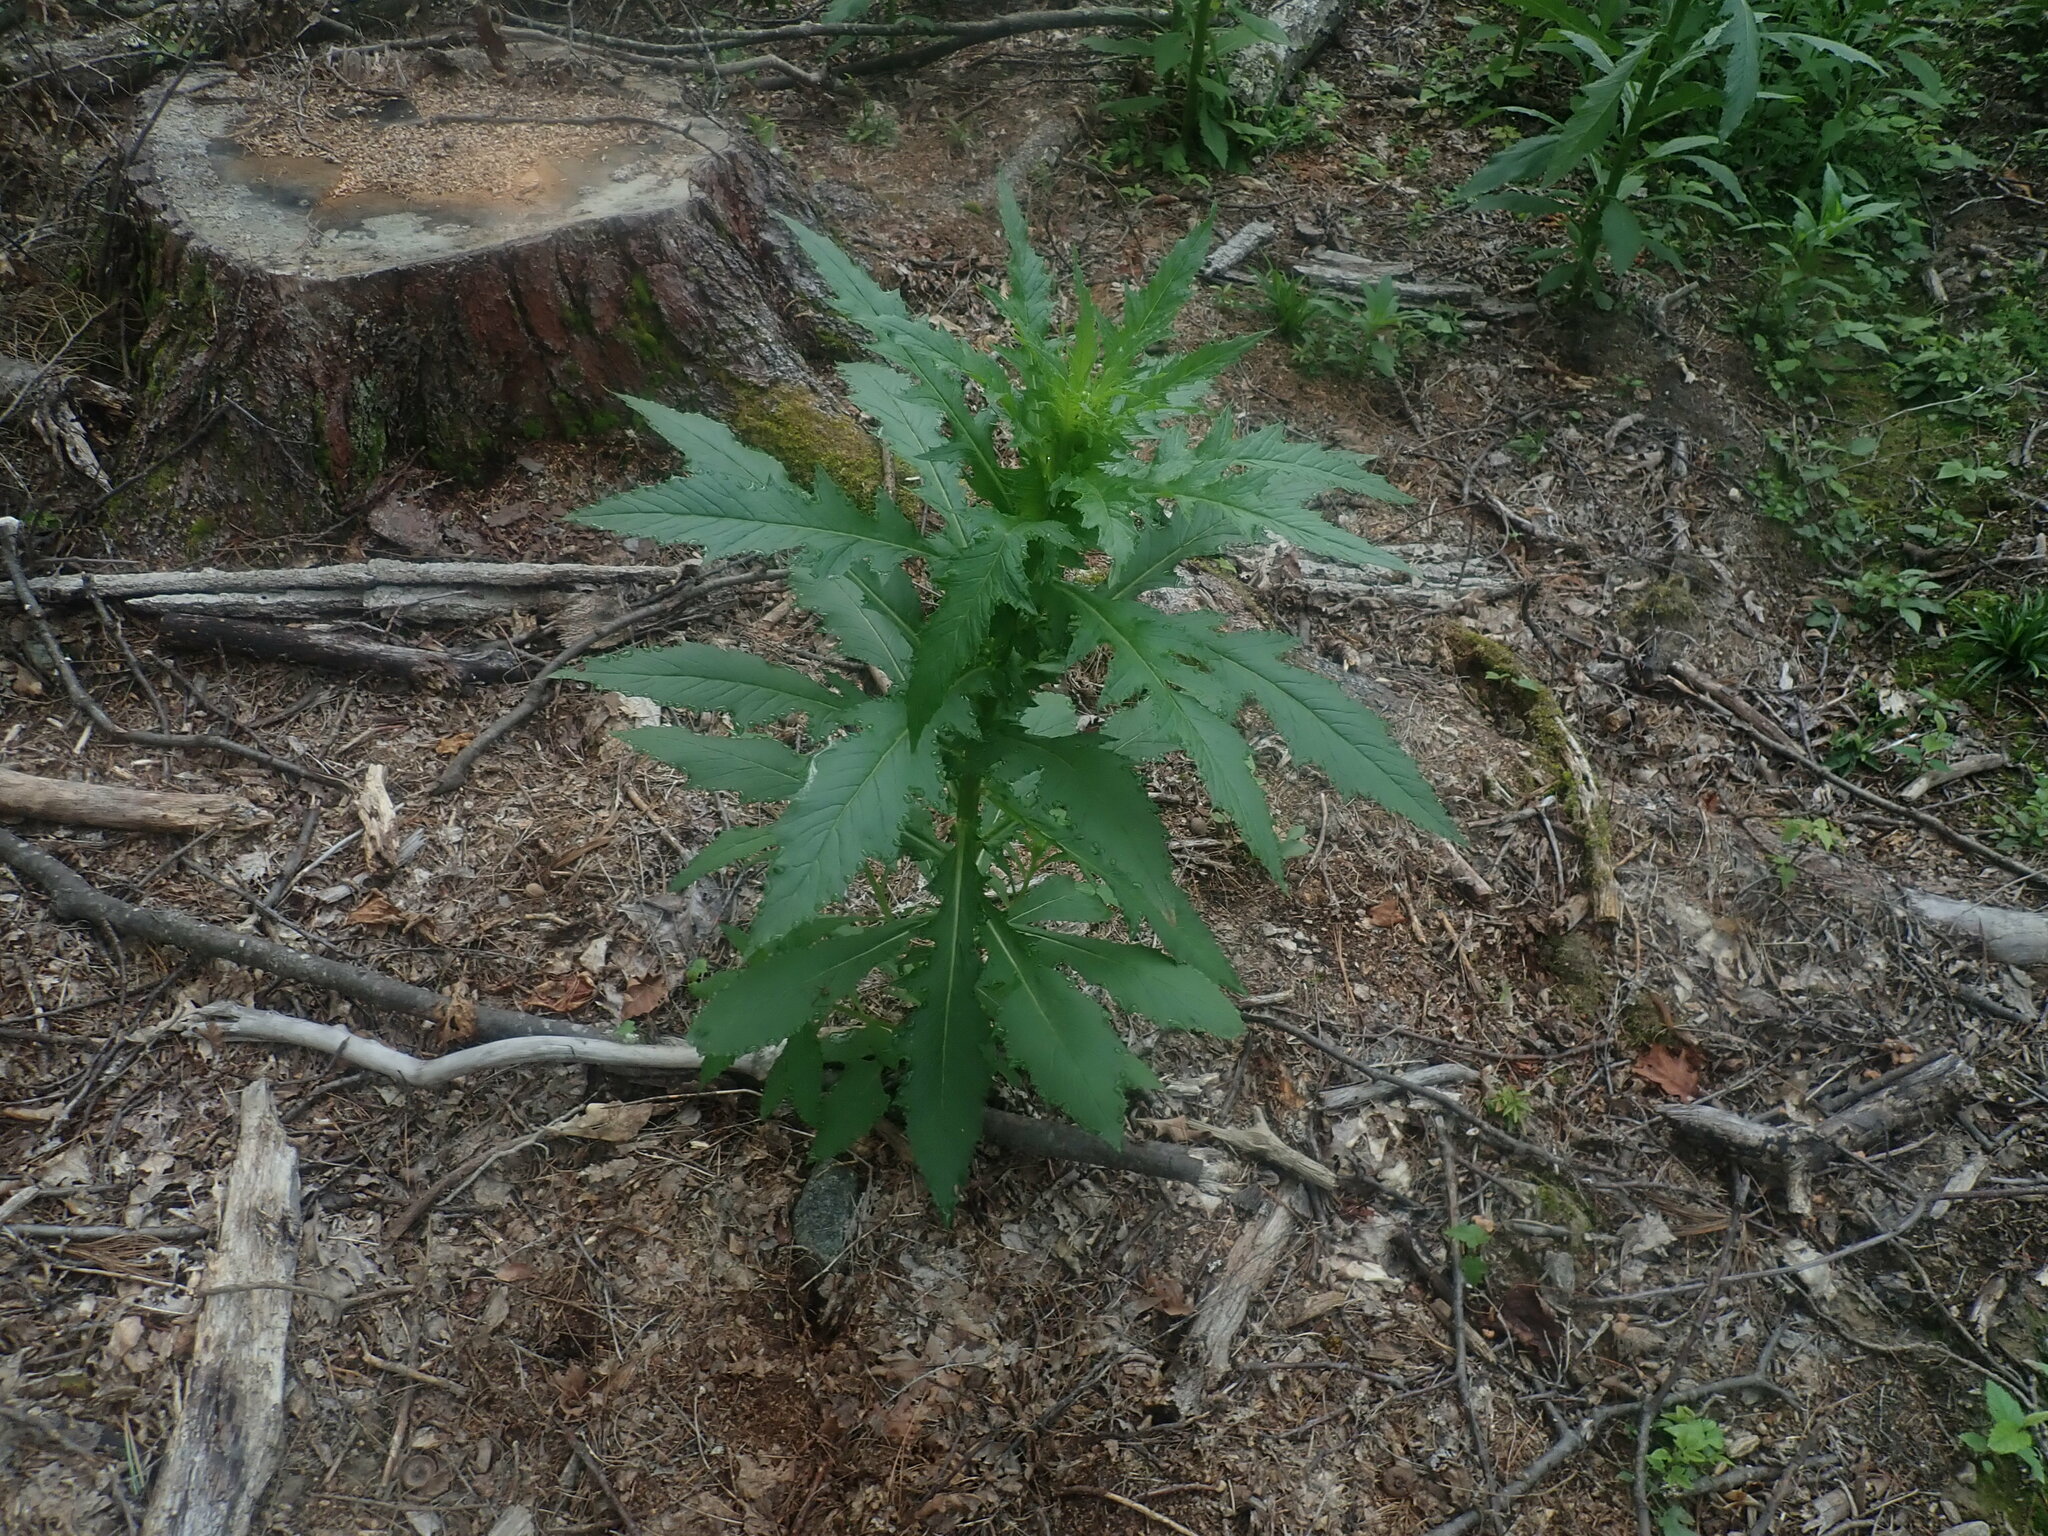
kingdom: Plantae
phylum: Tracheophyta
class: Magnoliopsida
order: Asterales
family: Asteraceae
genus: Erechtites
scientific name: Erechtites hieraciifolius
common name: American burnweed
